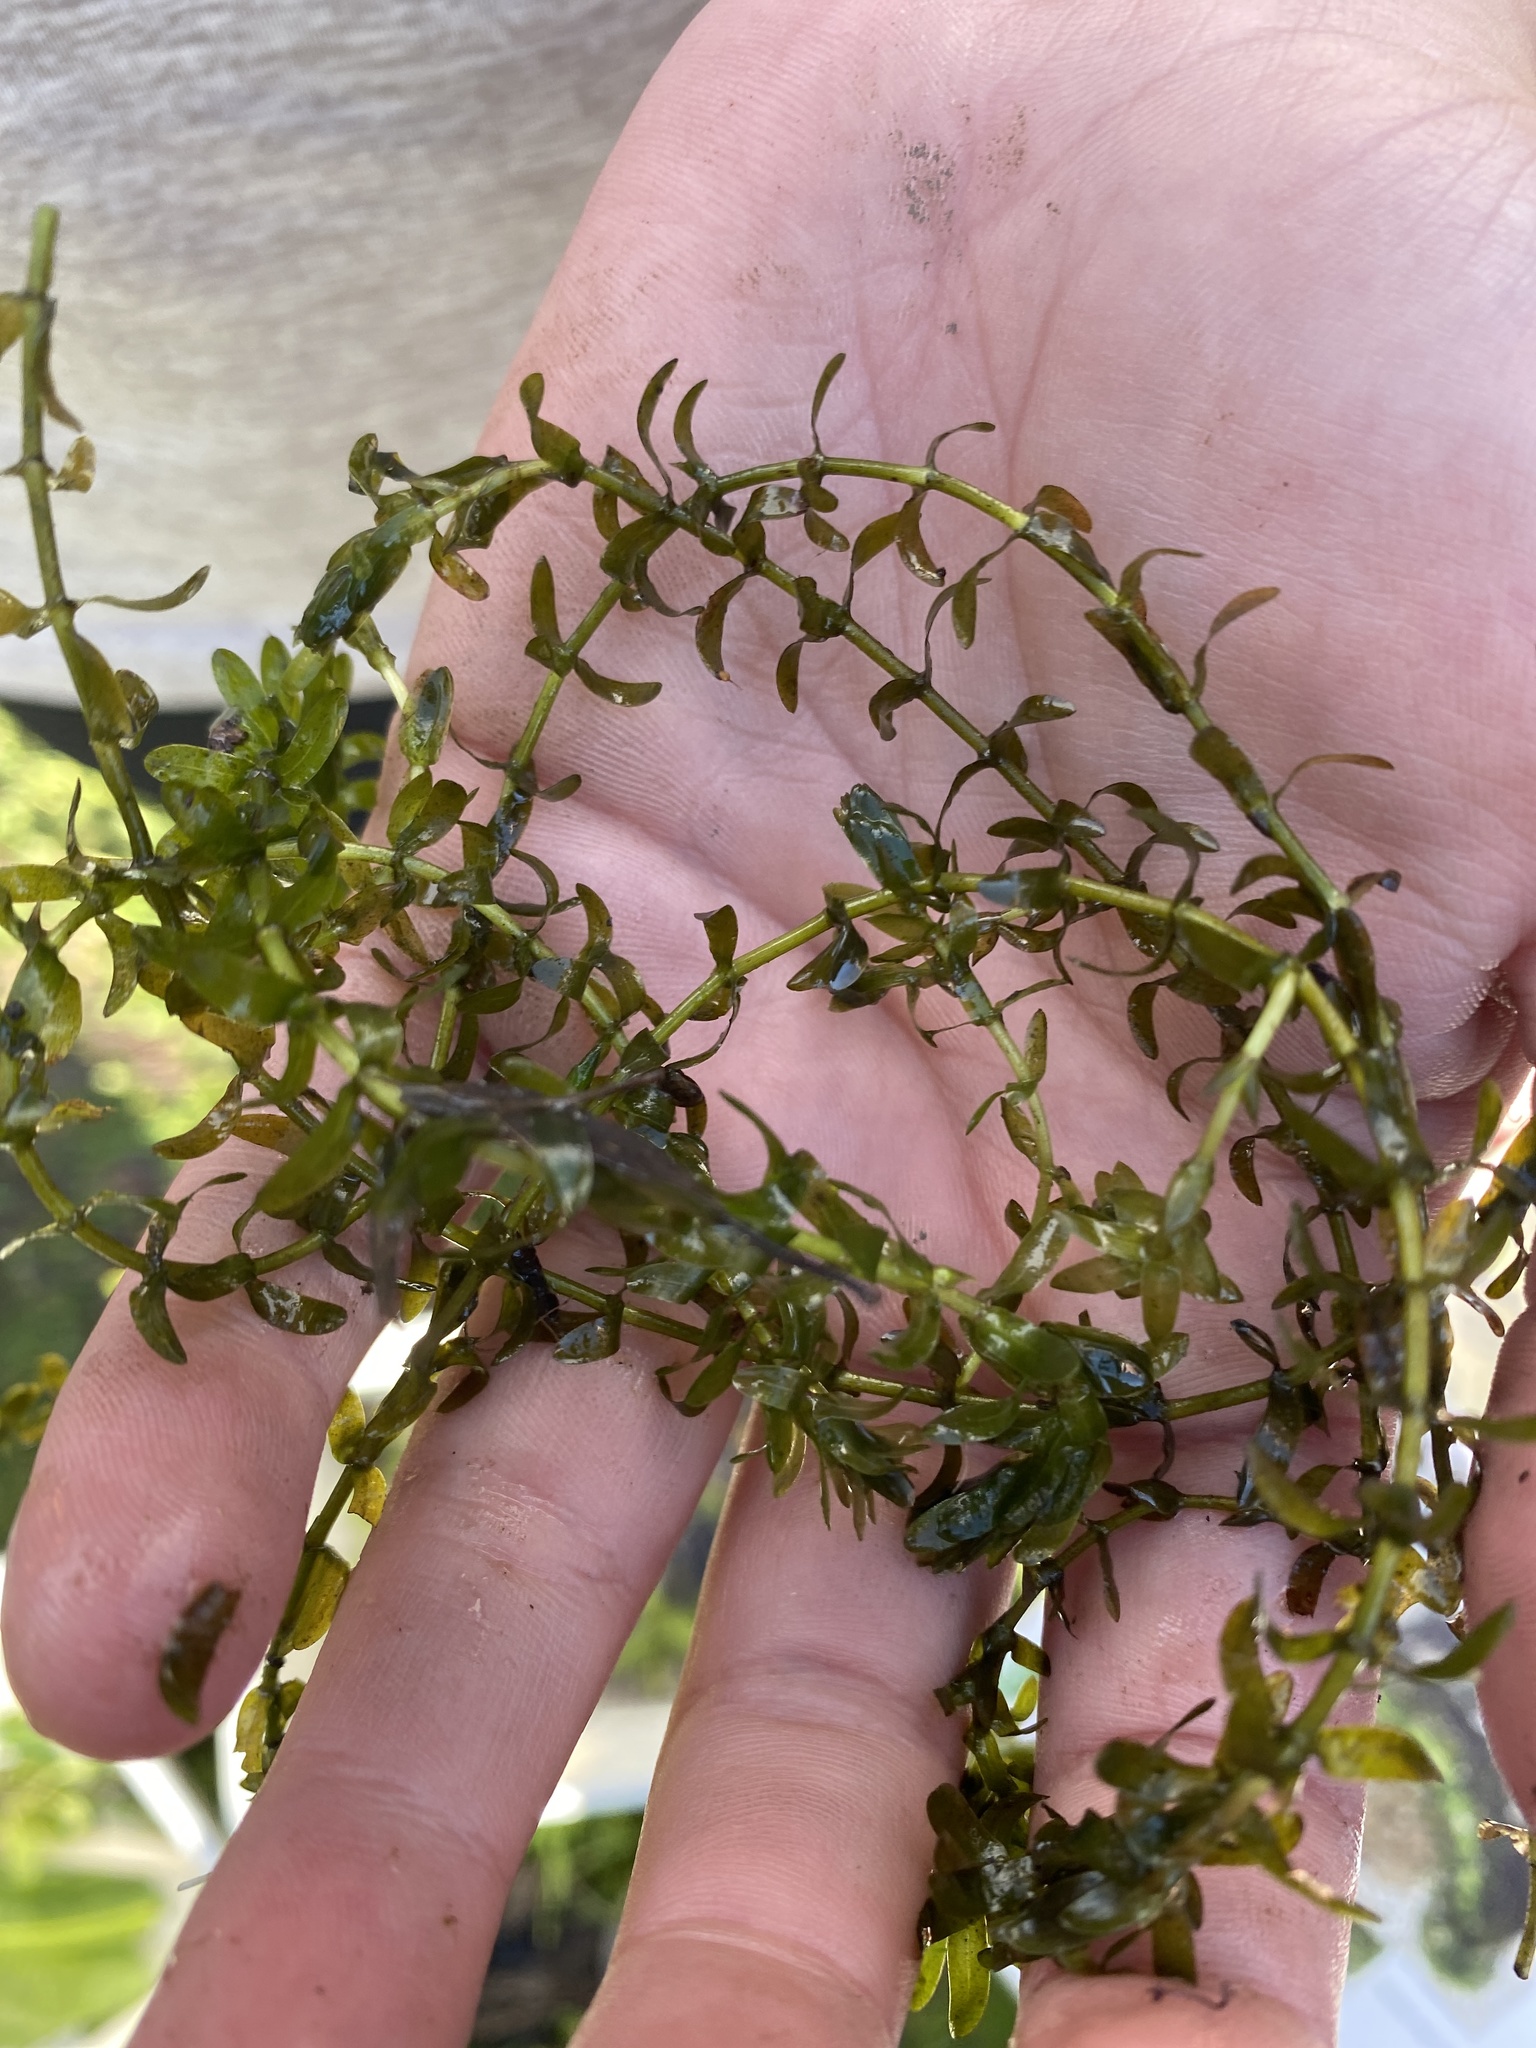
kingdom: Plantae
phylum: Tracheophyta
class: Liliopsida
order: Alismatales
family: Hydrocharitaceae
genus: Elodea
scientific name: Elodea canadensis
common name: Canadian waterweed
